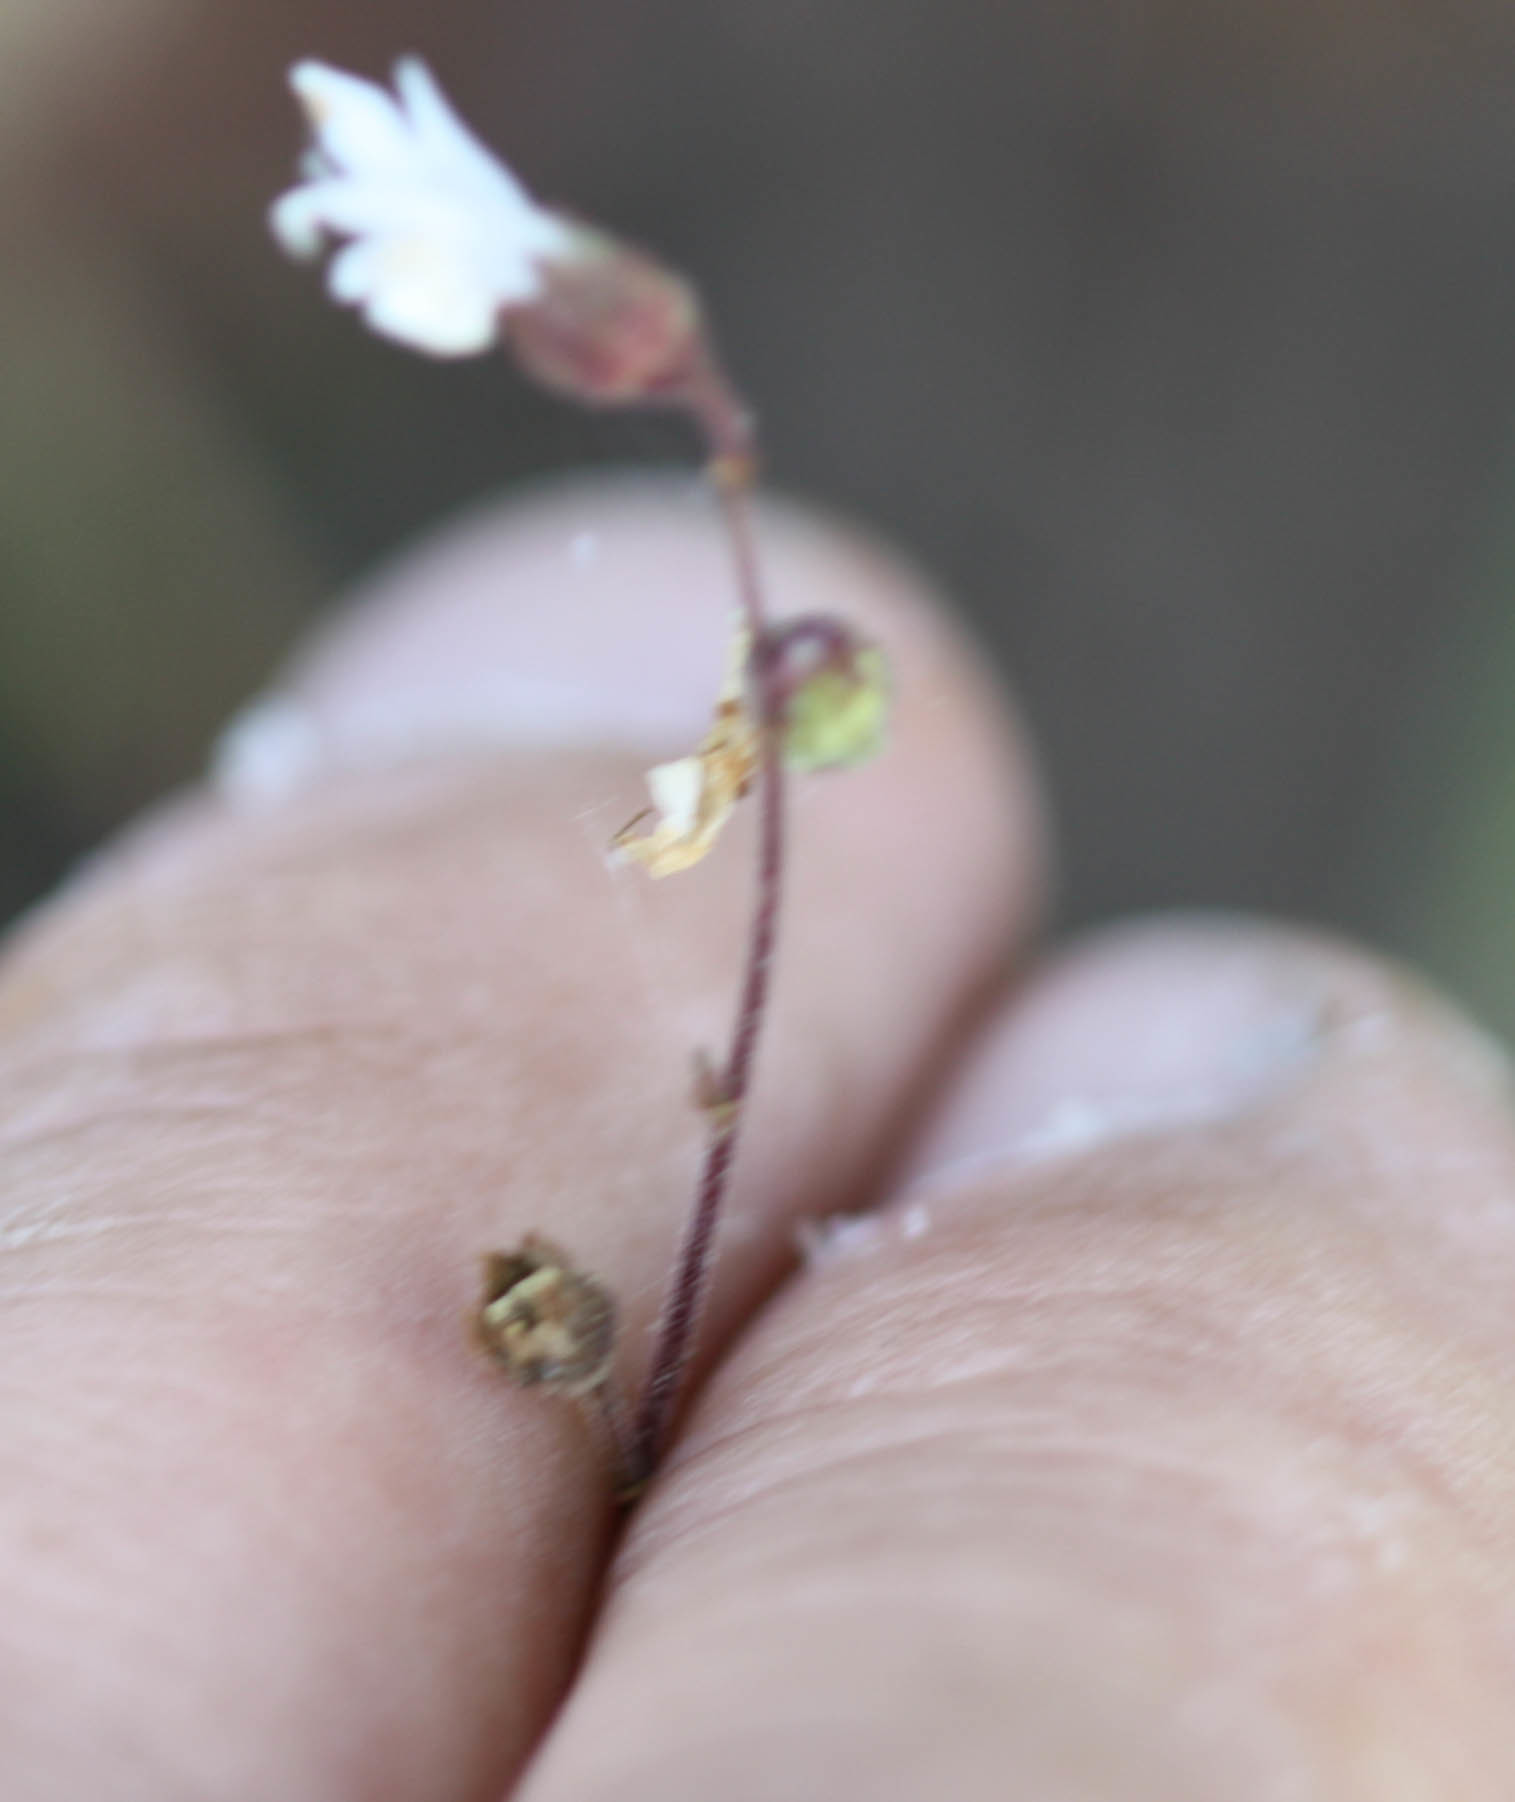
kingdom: Plantae
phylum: Tracheophyta
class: Magnoliopsida
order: Saxifragales
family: Saxifragaceae
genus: Lithophragma
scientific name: Lithophragma affine
